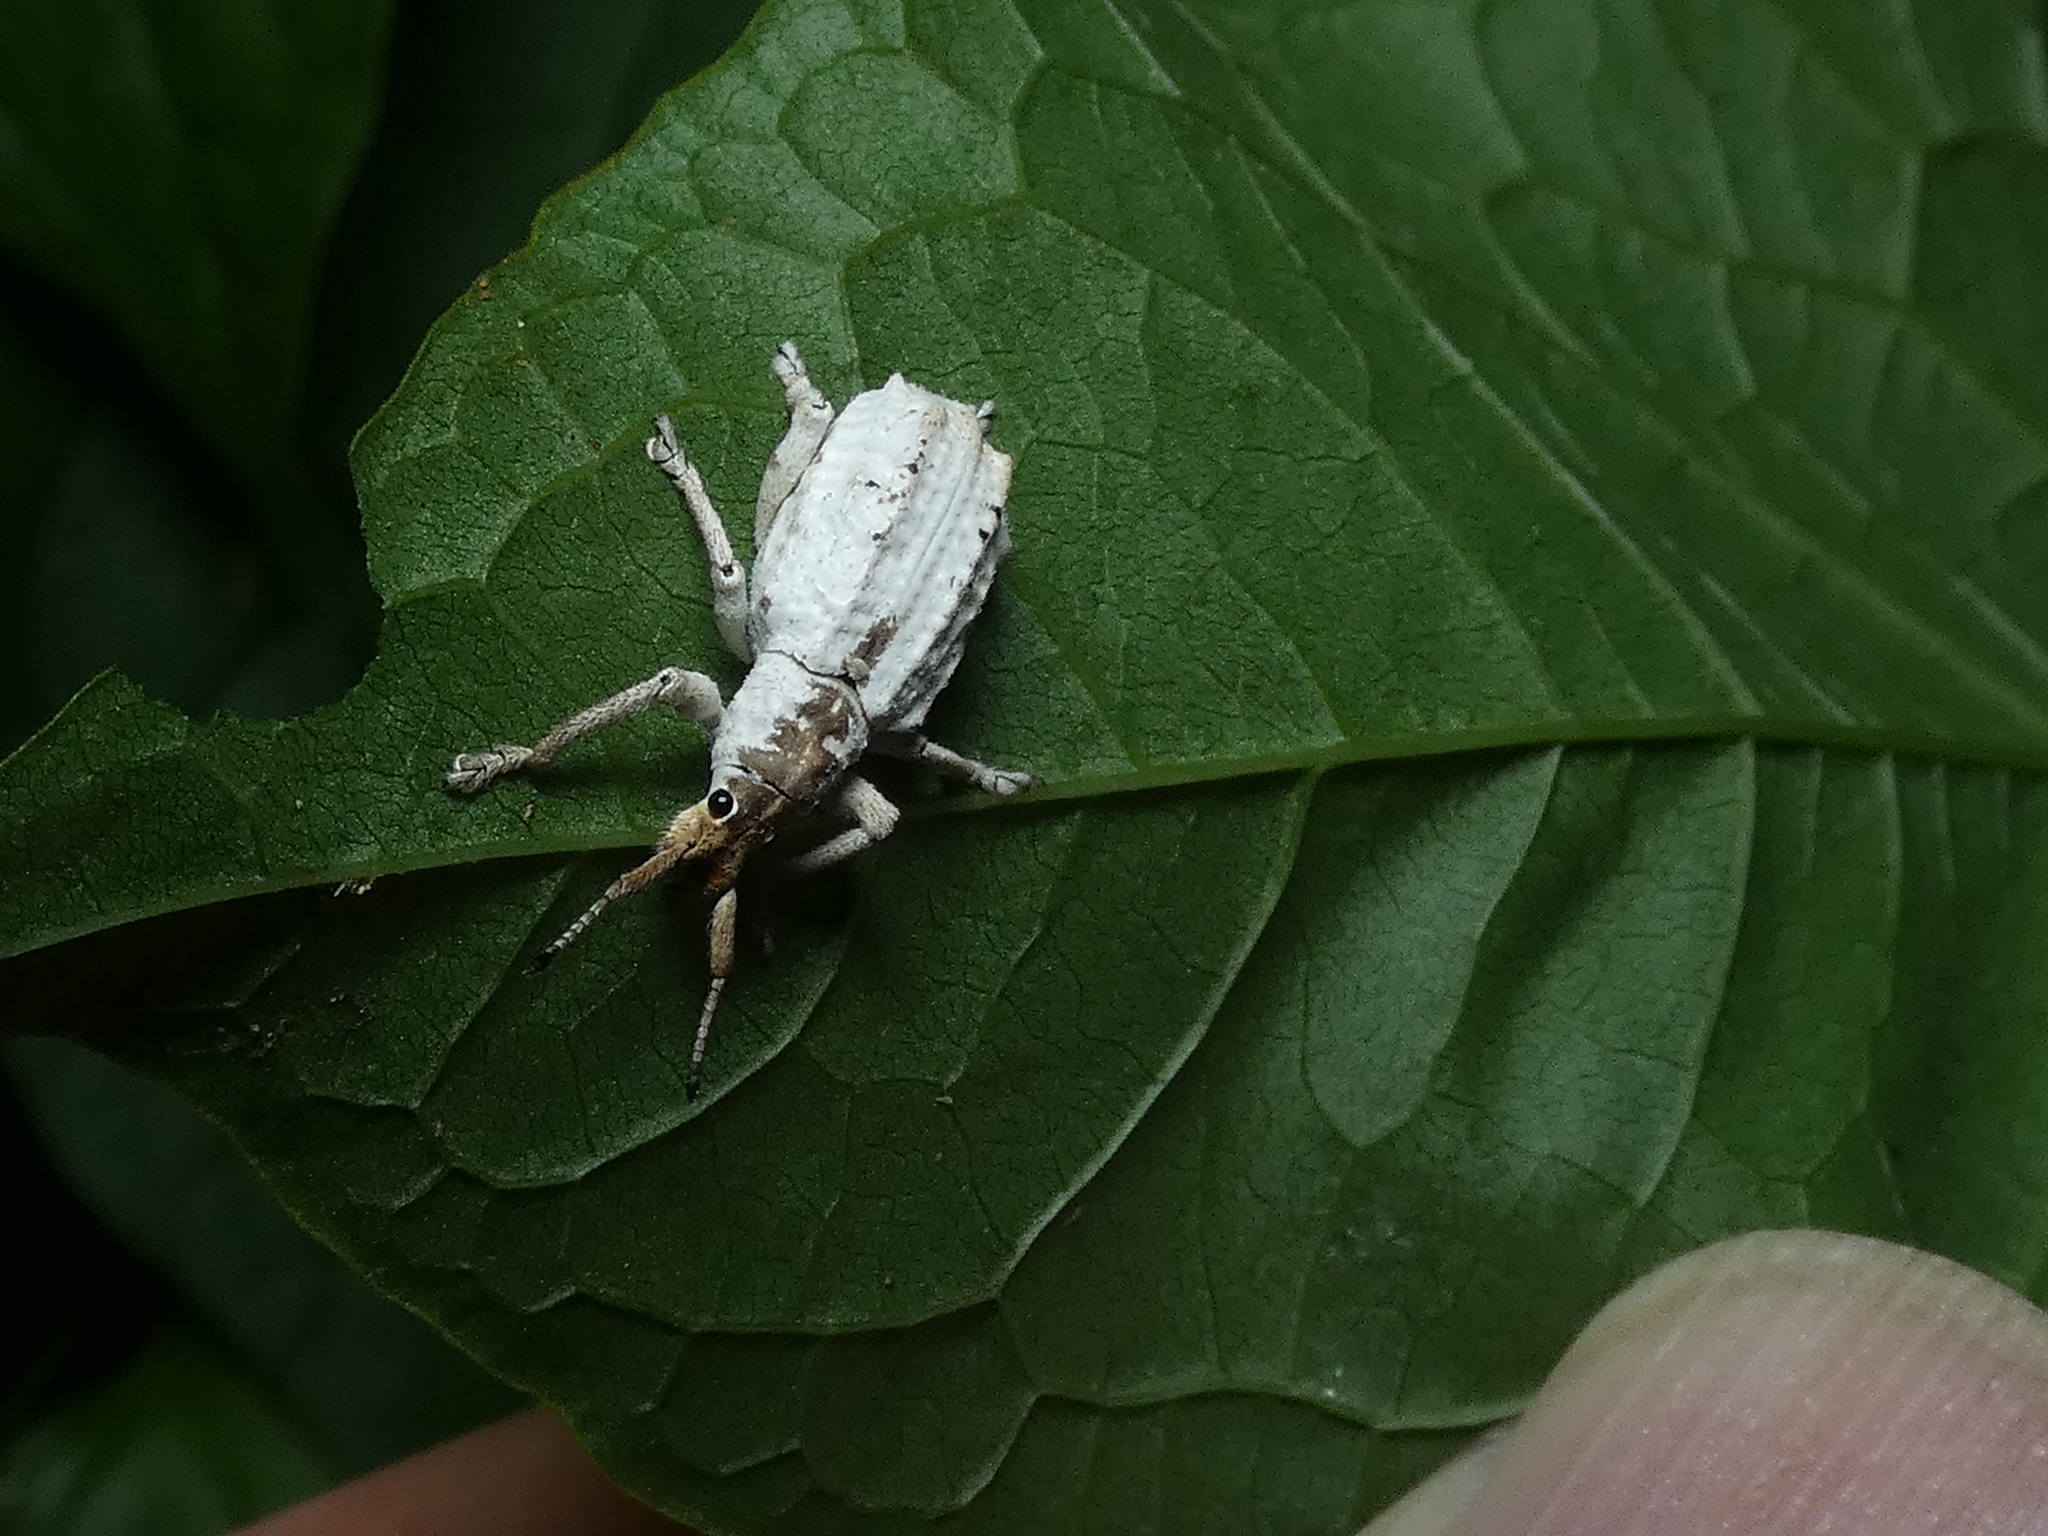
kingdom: Animalia
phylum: Arthropoda
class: Insecta
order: Coleoptera
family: Curculionidae
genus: Compsus
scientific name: Compsus niveus
